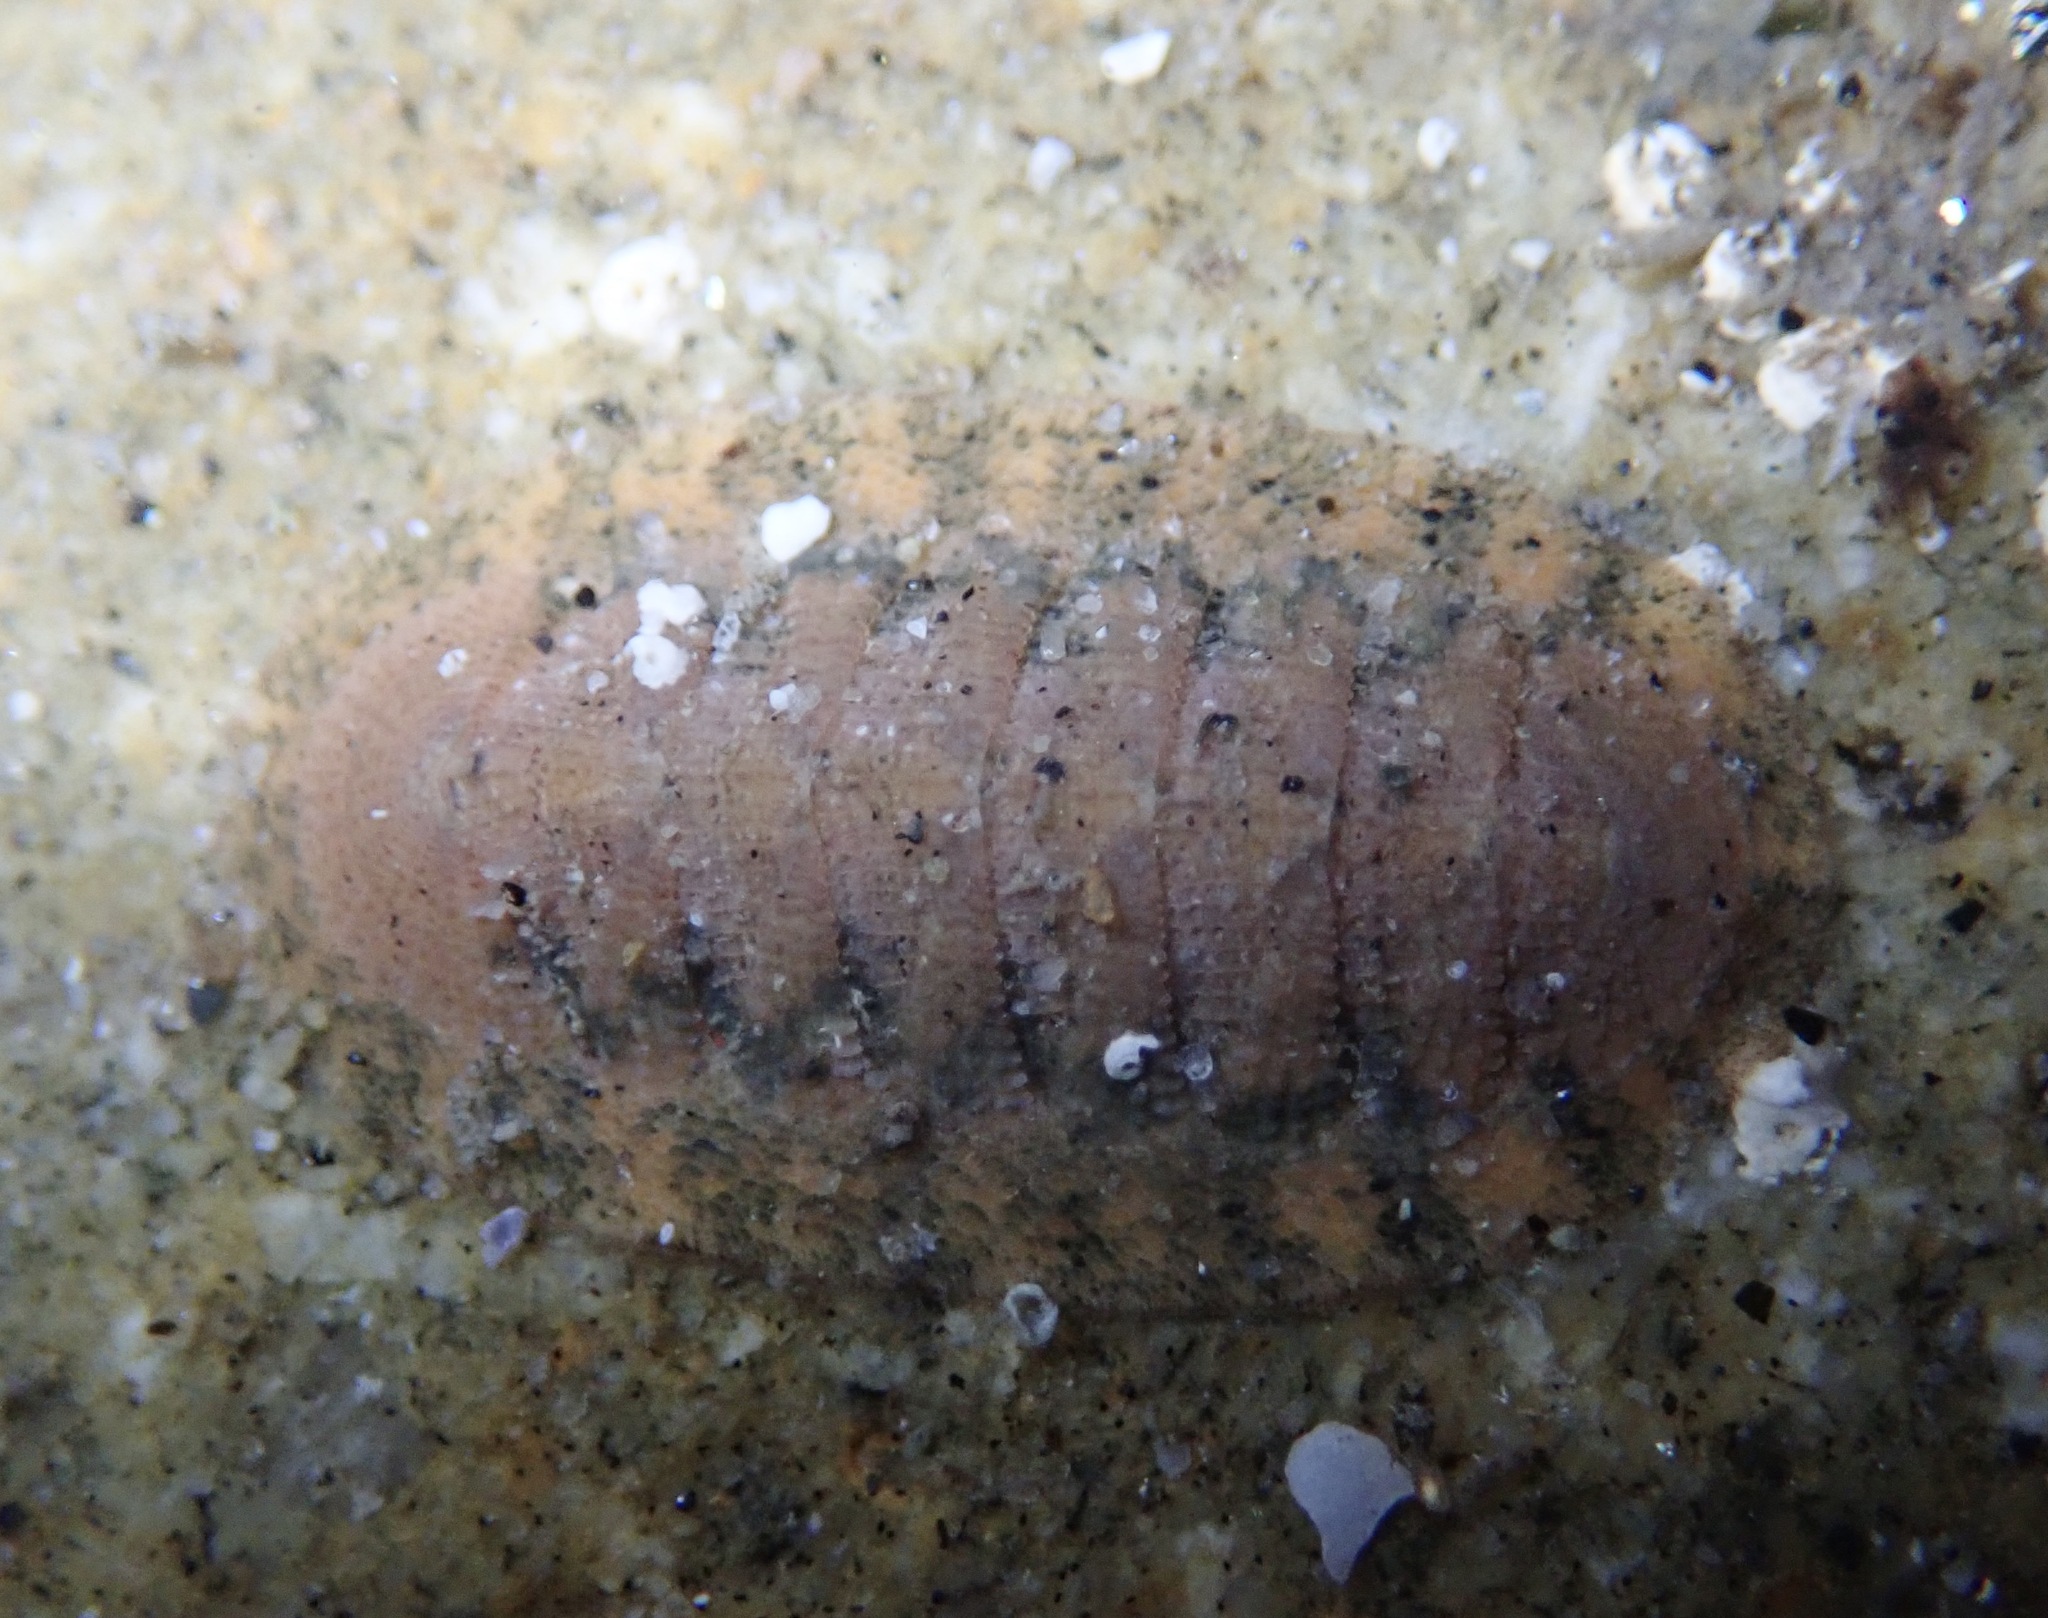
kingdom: Animalia
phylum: Mollusca
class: Polyplacophora
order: Chitonida
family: Ischnochitonidae
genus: Lepidozona
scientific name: Lepidozona pectinulata
